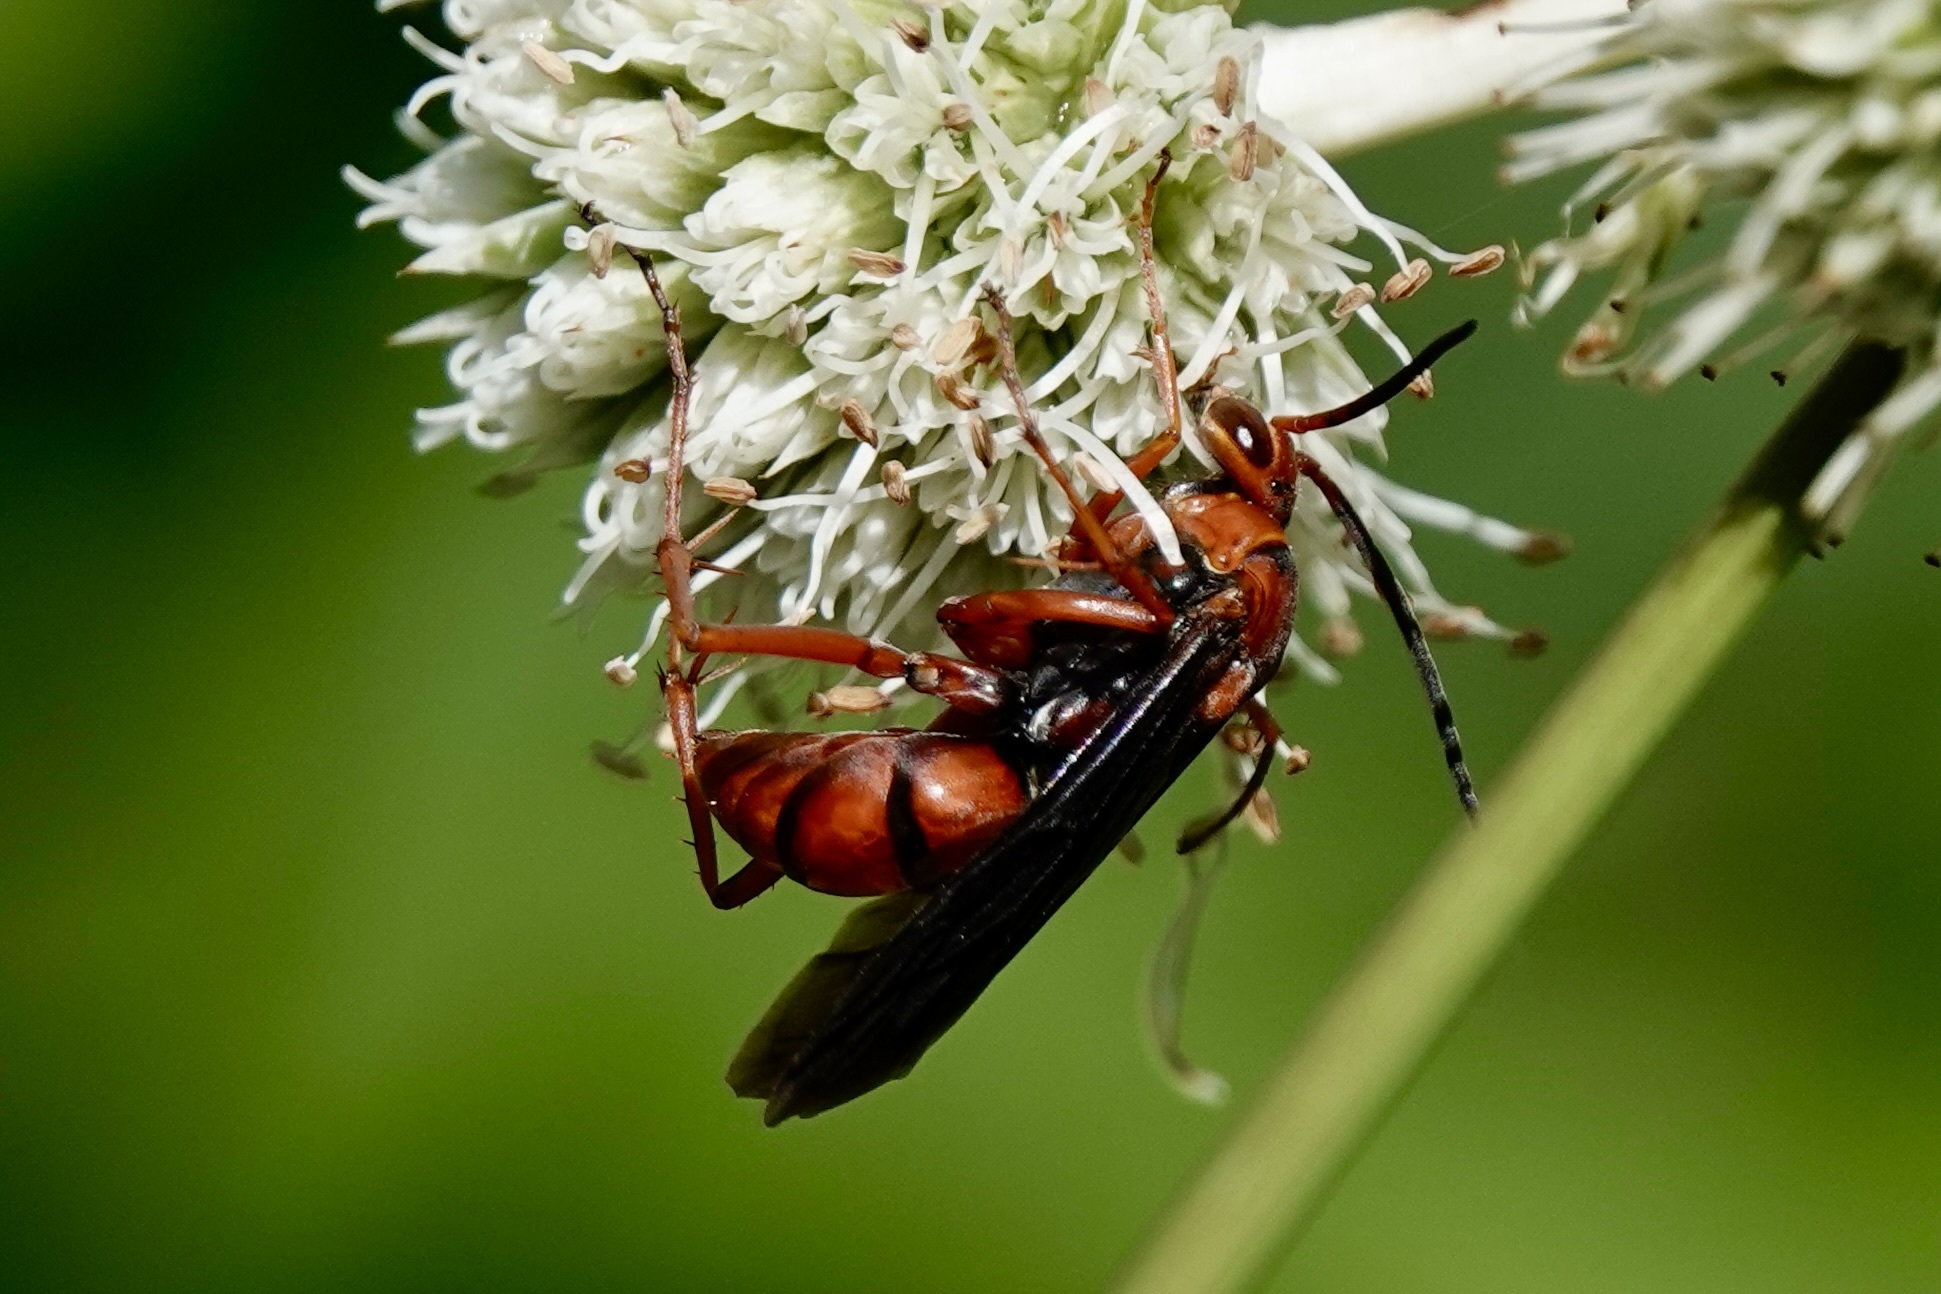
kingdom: Animalia
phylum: Arthropoda
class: Insecta
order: Hymenoptera
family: Pompilidae
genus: Tachypompilus
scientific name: Tachypompilus ferrugineus
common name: Rusty spider wasp
